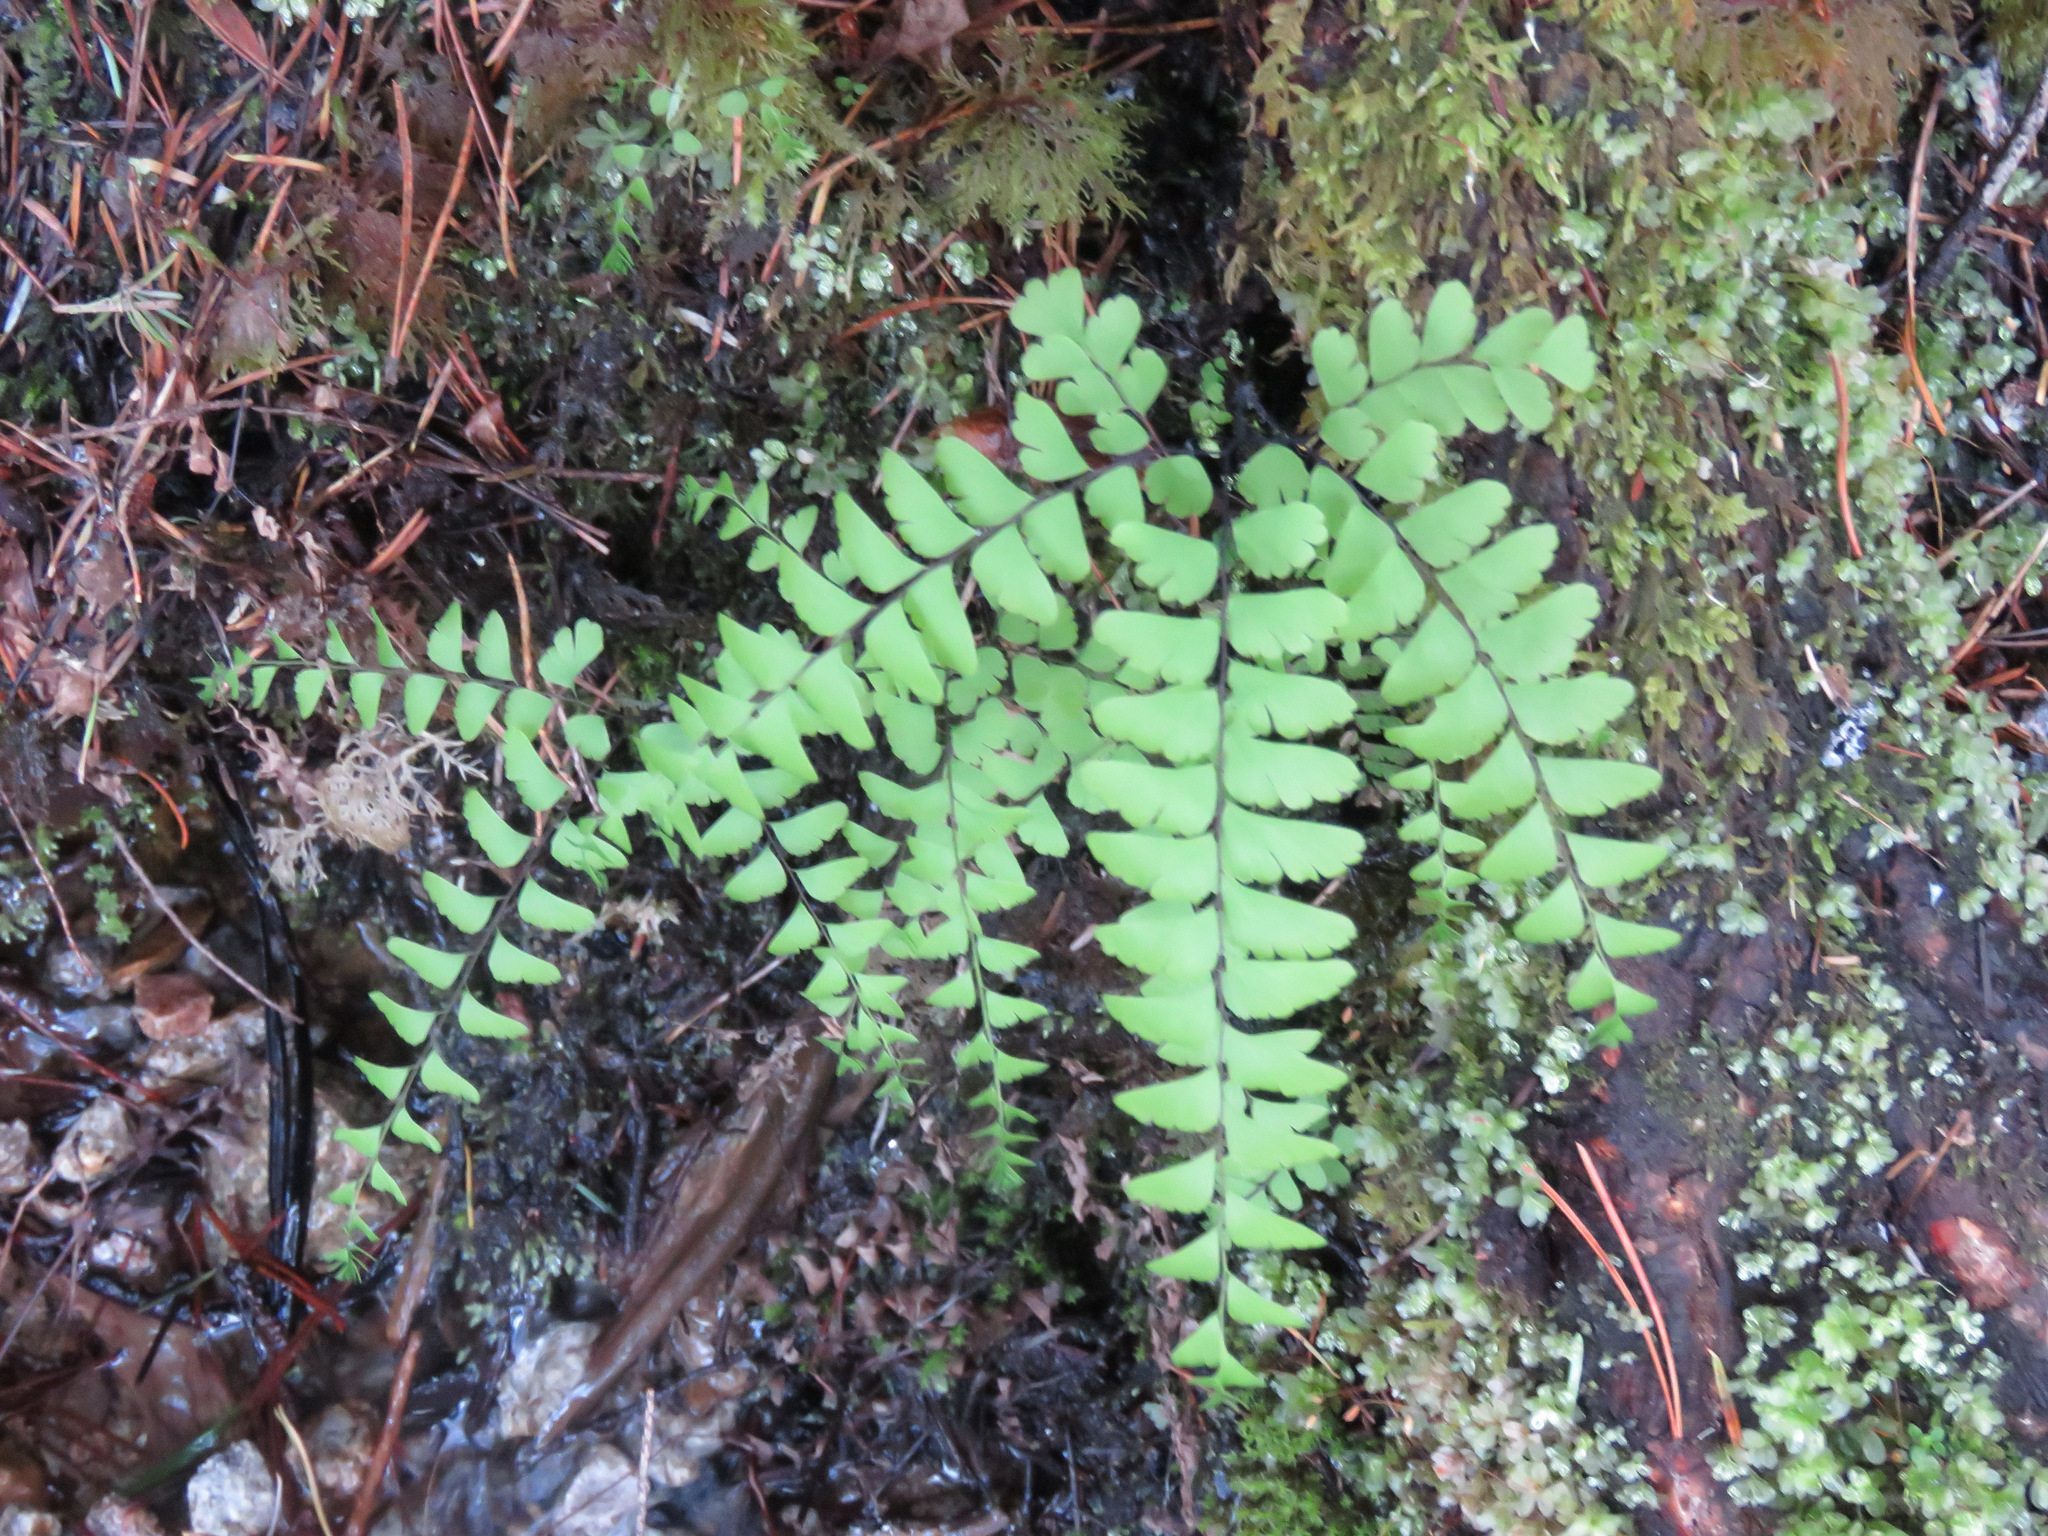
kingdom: Plantae
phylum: Tracheophyta
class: Polypodiopsida
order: Polypodiales
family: Pteridaceae
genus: Adiantum
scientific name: Adiantum aleuticum
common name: Aleutian maidenhair fern
